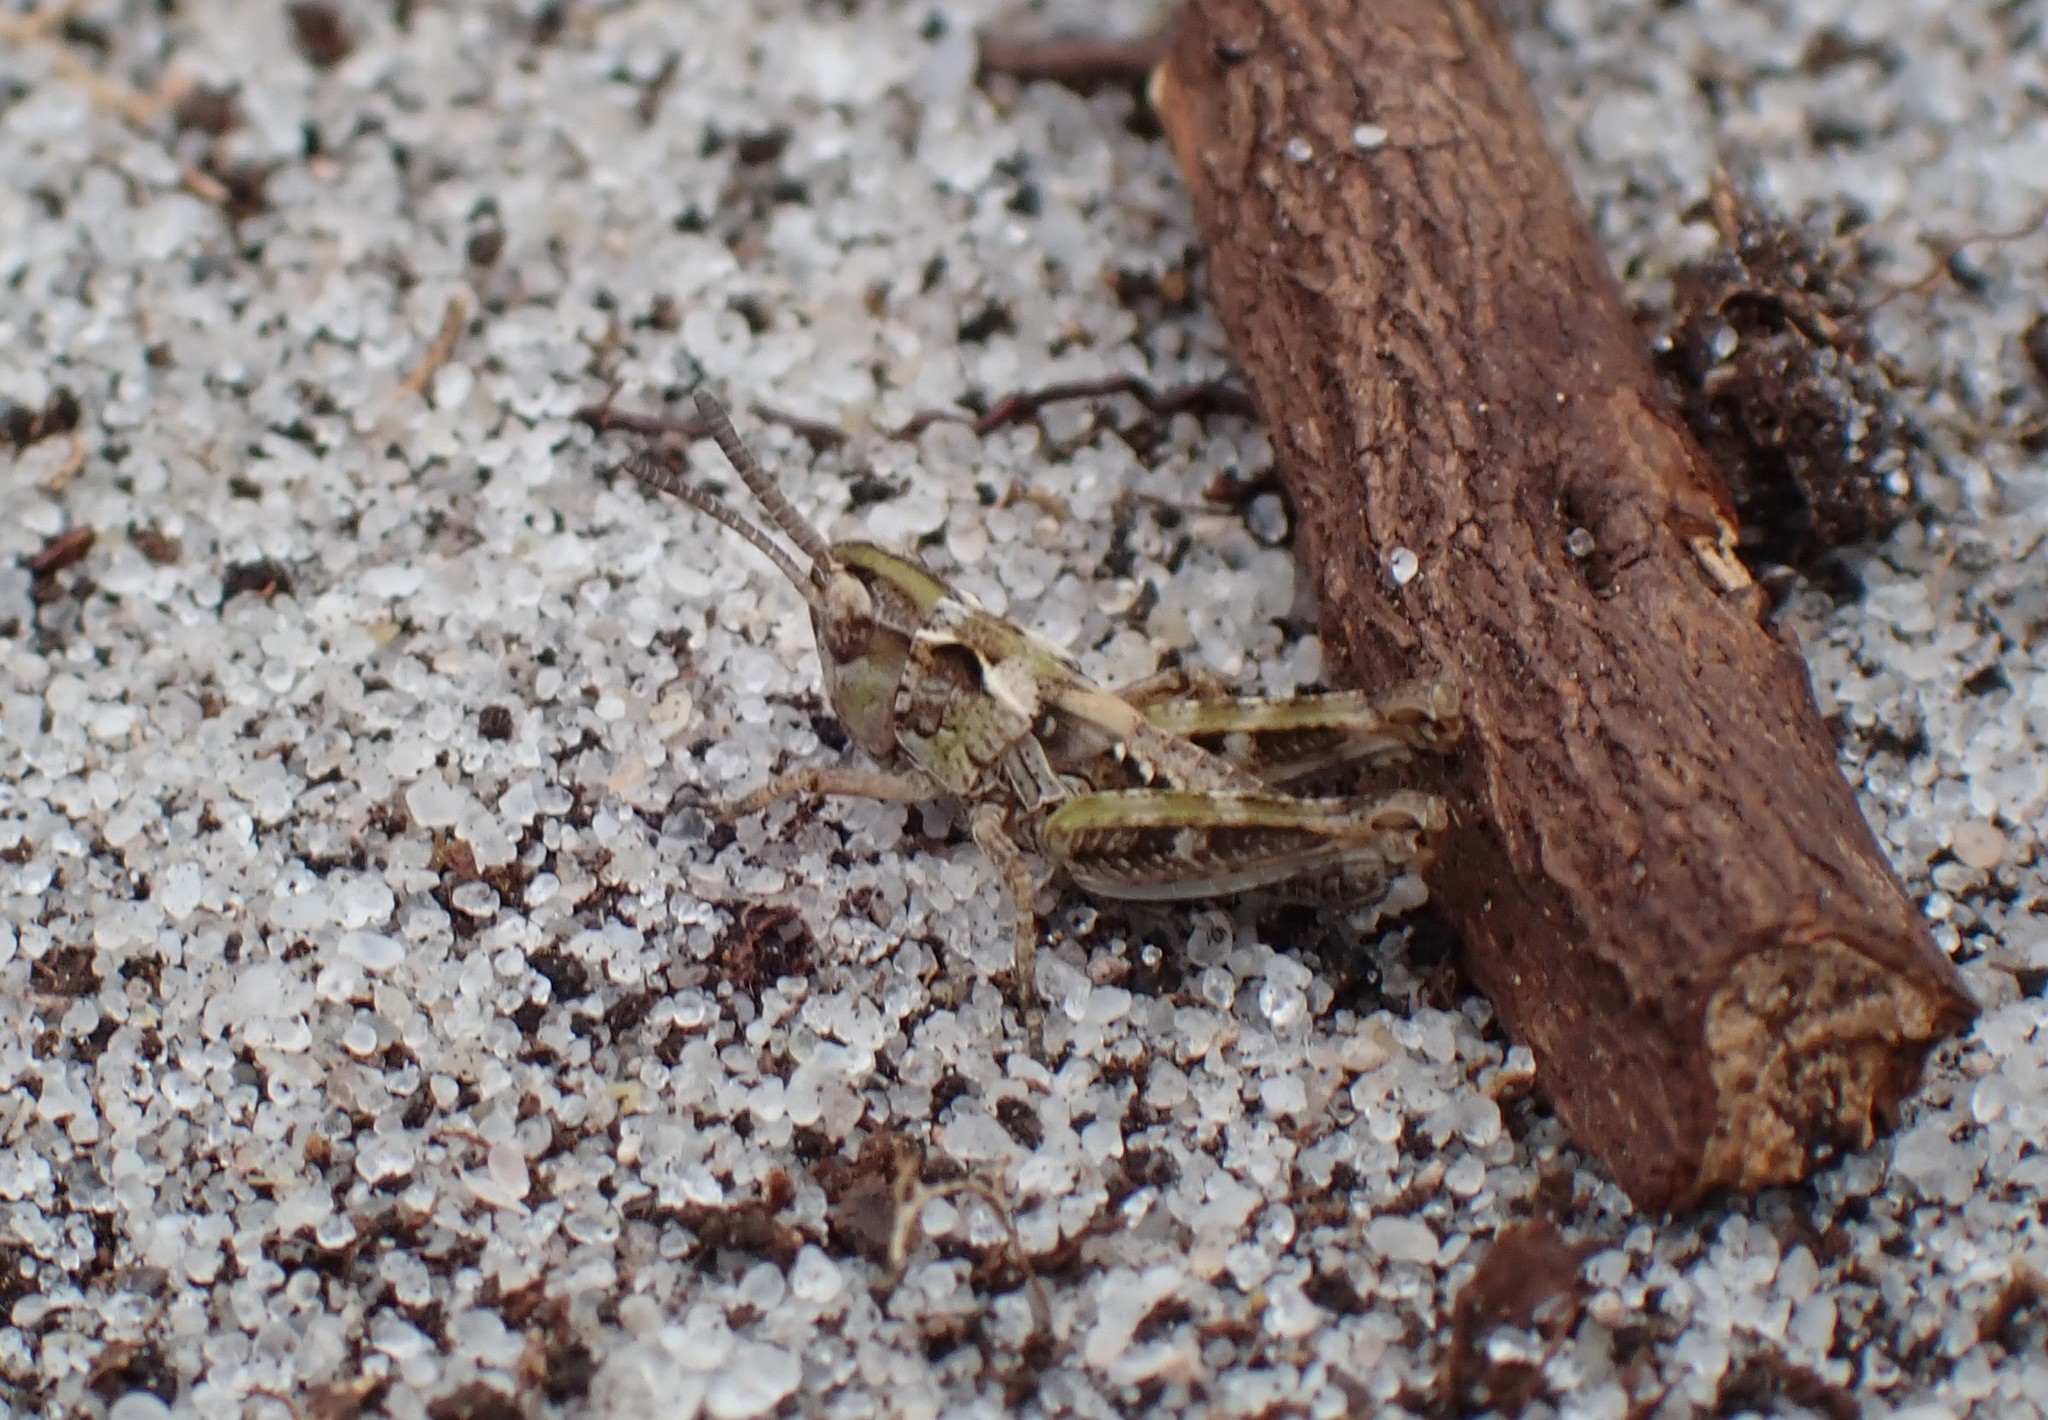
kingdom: Animalia
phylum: Arthropoda
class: Insecta
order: Orthoptera
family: Acrididae
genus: Myrmeleotettix
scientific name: Myrmeleotettix maculatus
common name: Mottled grasshopper
